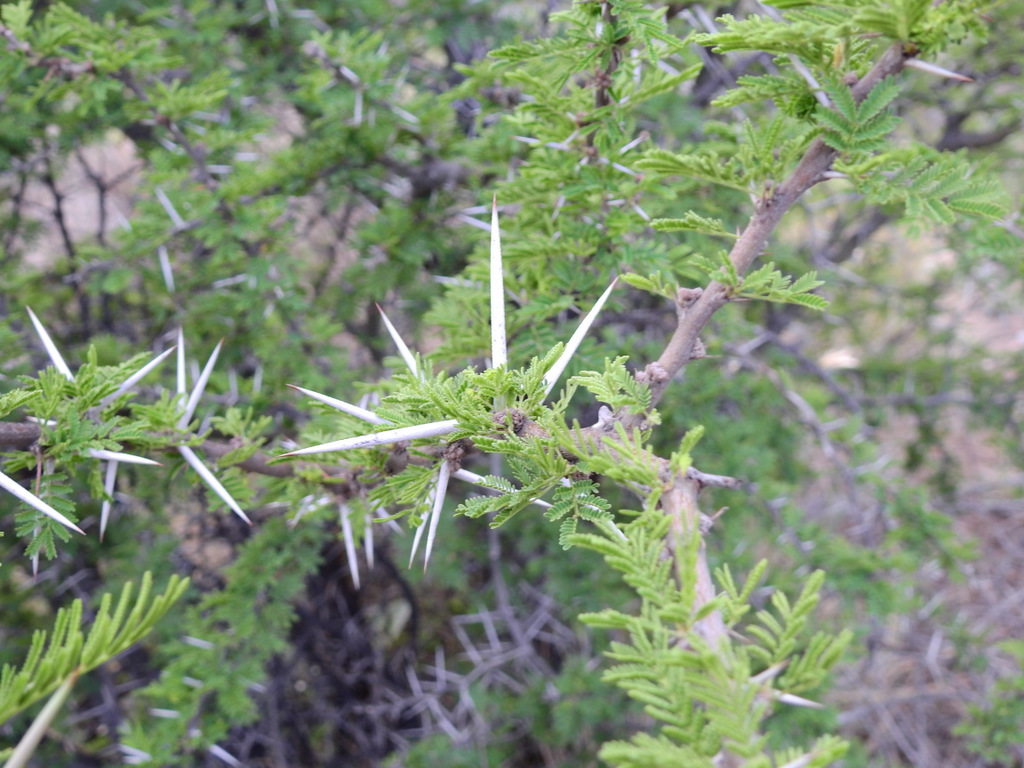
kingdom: Plantae
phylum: Tracheophyta
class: Magnoliopsida
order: Fabales
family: Fabaceae
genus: Vachellia
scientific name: Vachellia caven
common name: Roman cassie
